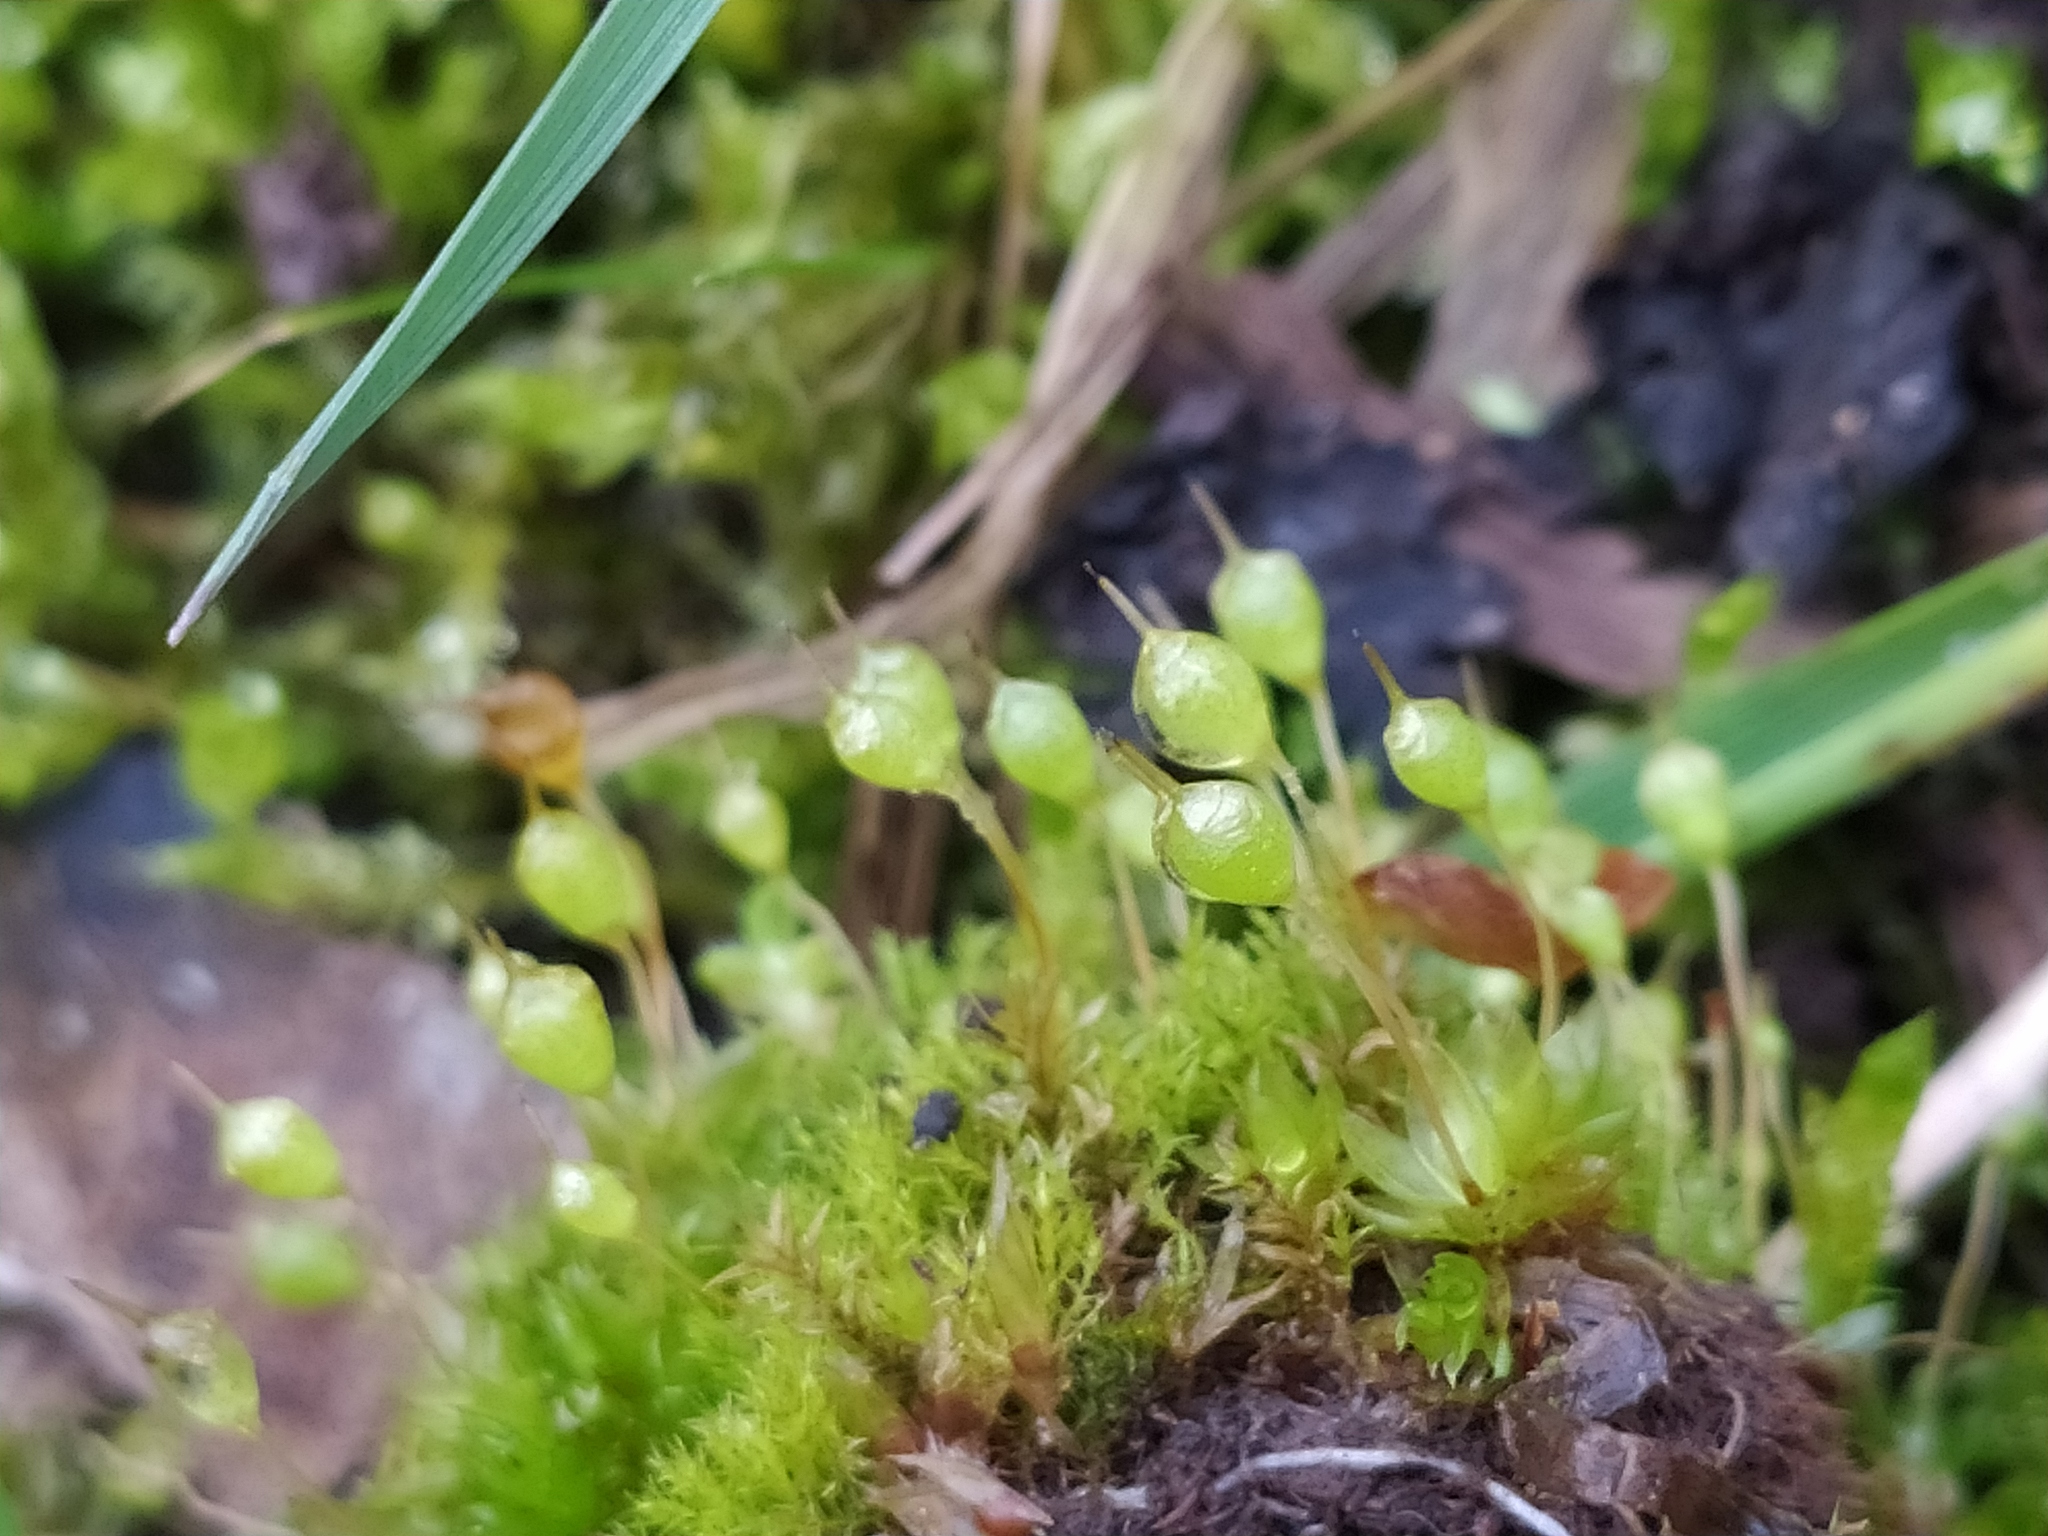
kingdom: Plantae
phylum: Bryophyta
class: Bryopsida
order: Funariales
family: Funariaceae
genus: Physcomitrium
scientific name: Physcomitrium pyriforme
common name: Common bladder-moss
